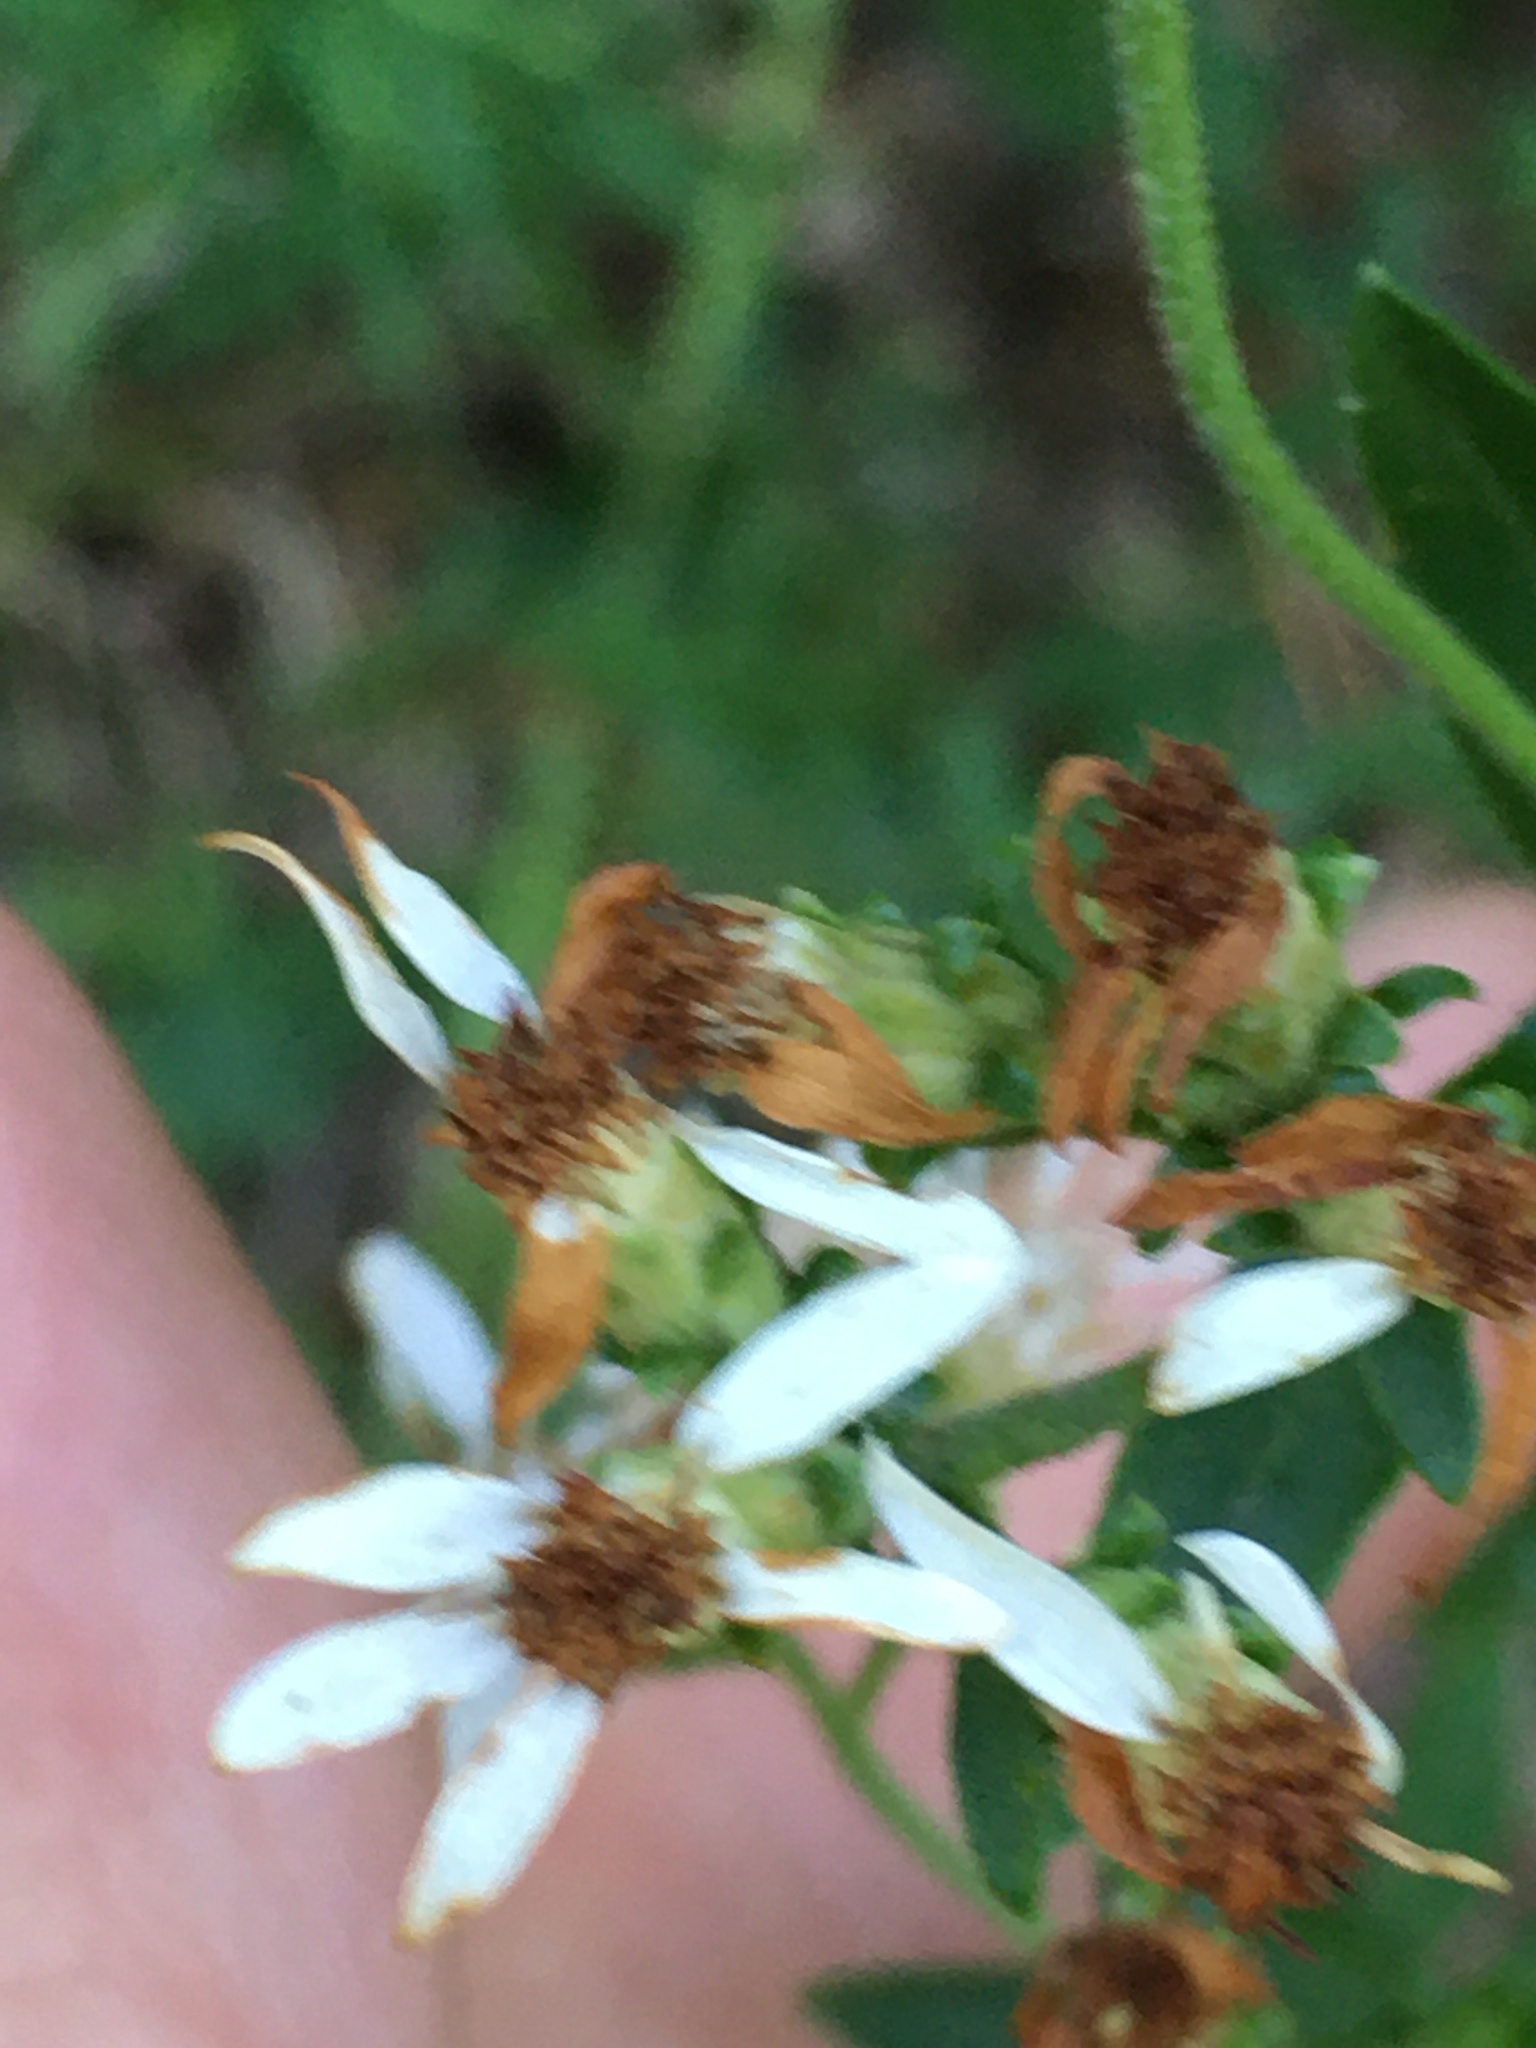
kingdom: Plantae
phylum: Tracheophyta
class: Magnoliopsida
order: Asterales
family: Asteraceae
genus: Sericocarpus
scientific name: Sericocarpus asteroides
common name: Toothed white-top aster
